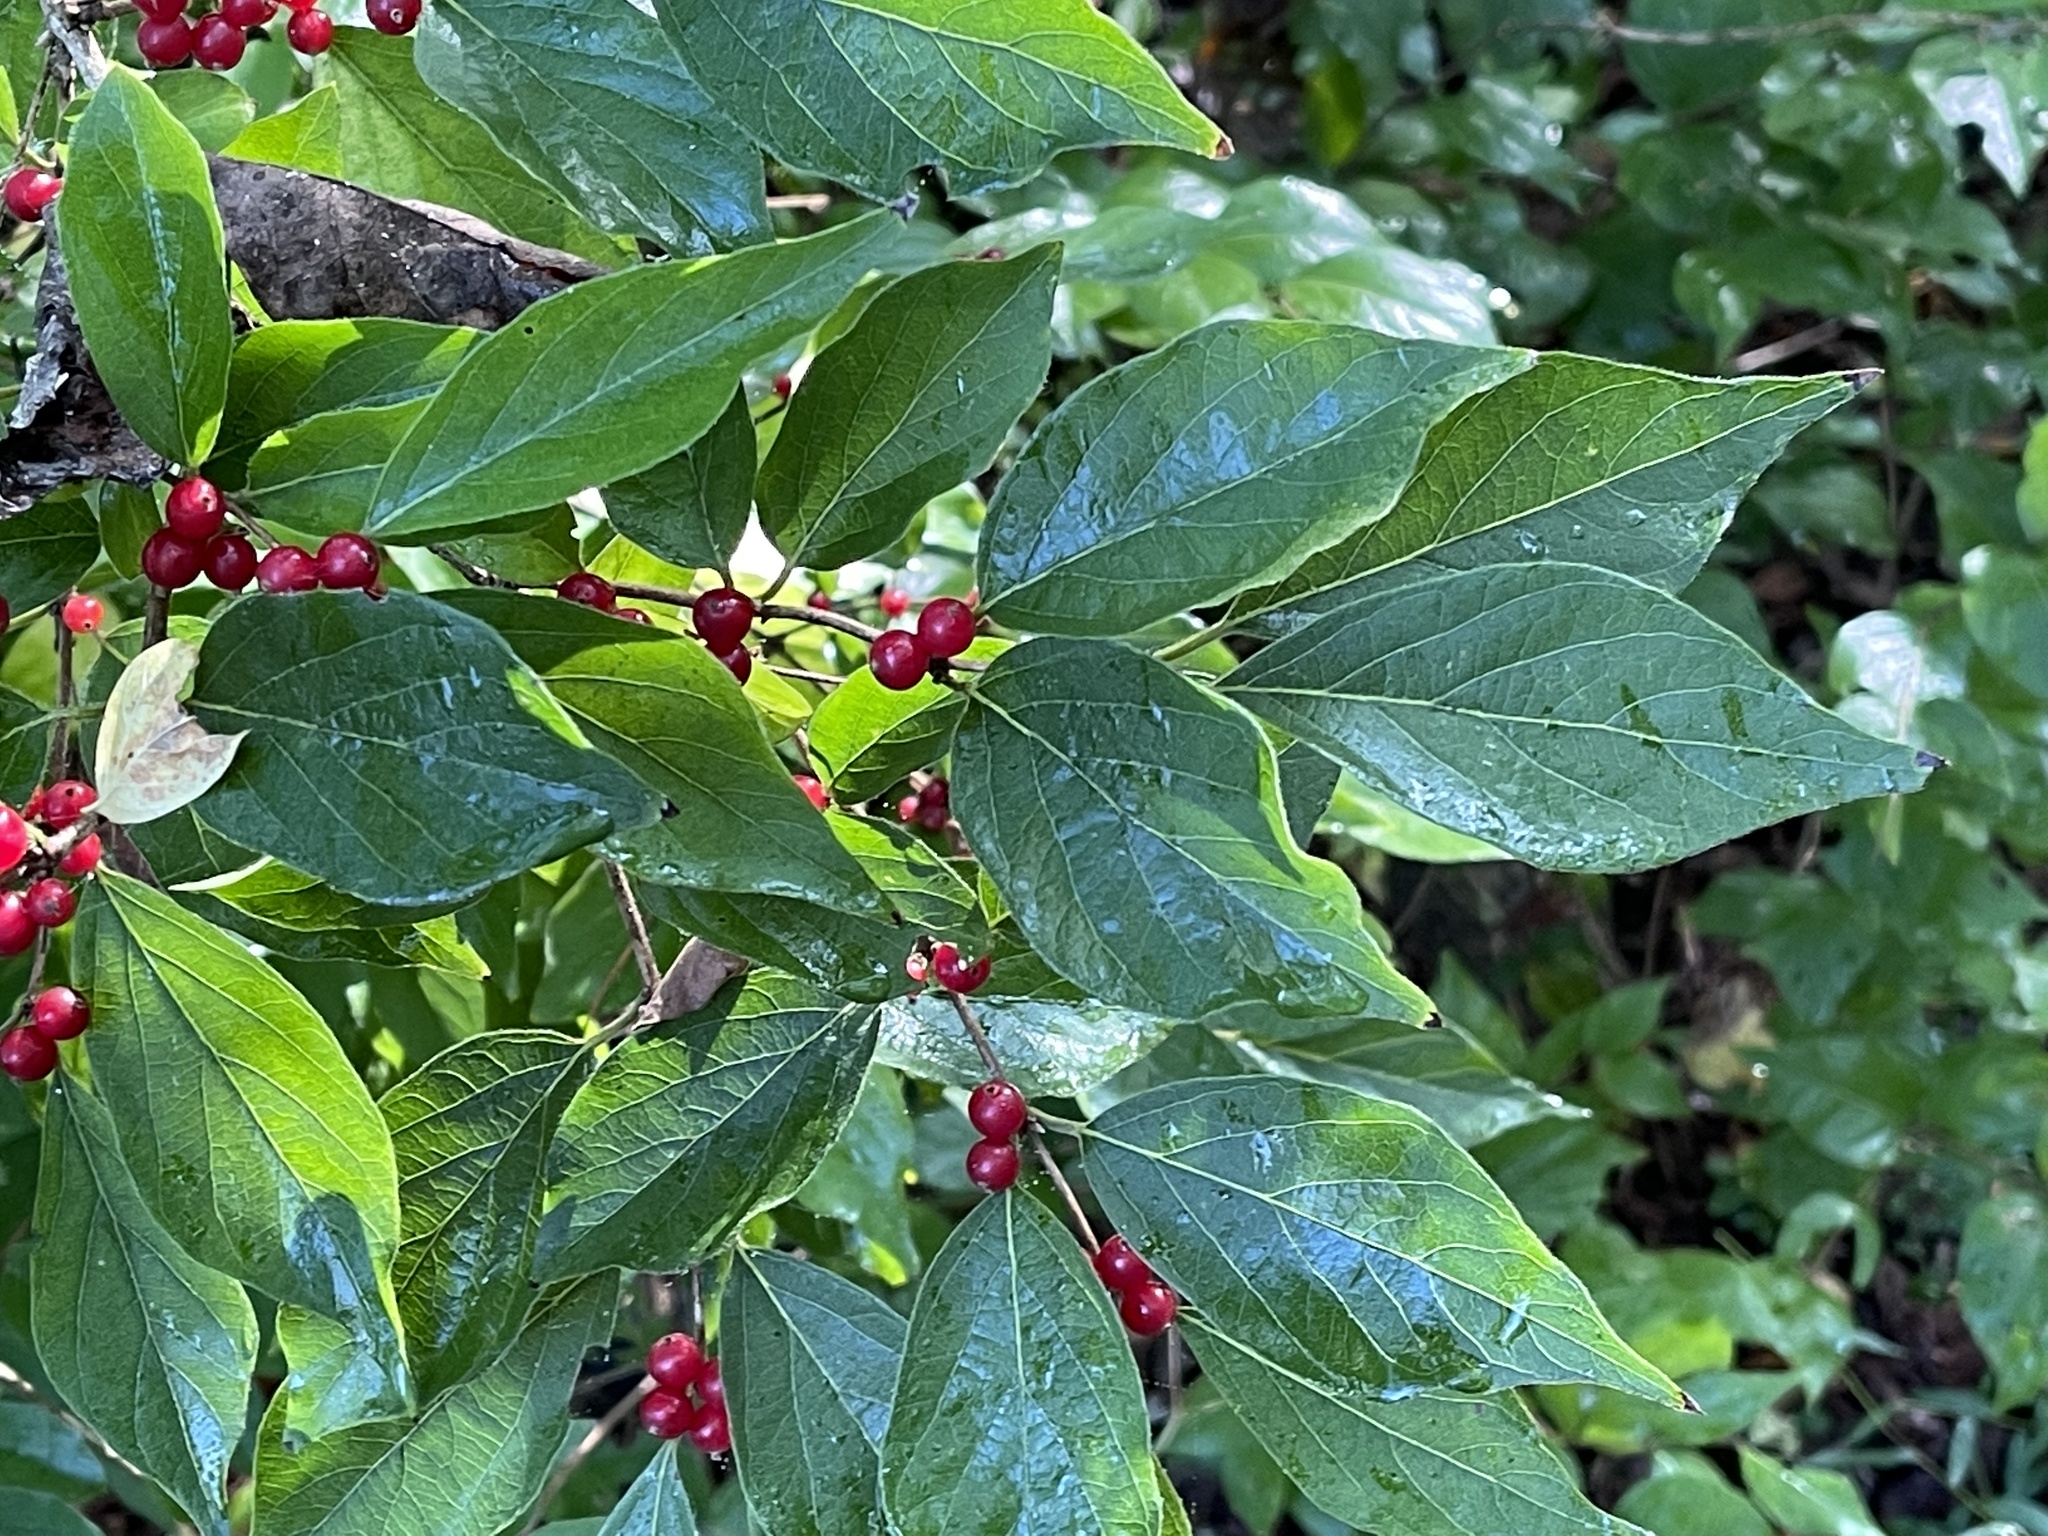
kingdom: Plantae
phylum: Tracheophyta
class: Magnoliopsida
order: Dipsacales
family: Caprifoliaceae
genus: Lonicera
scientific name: Lonicera maackii
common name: Amur honeysuckle
